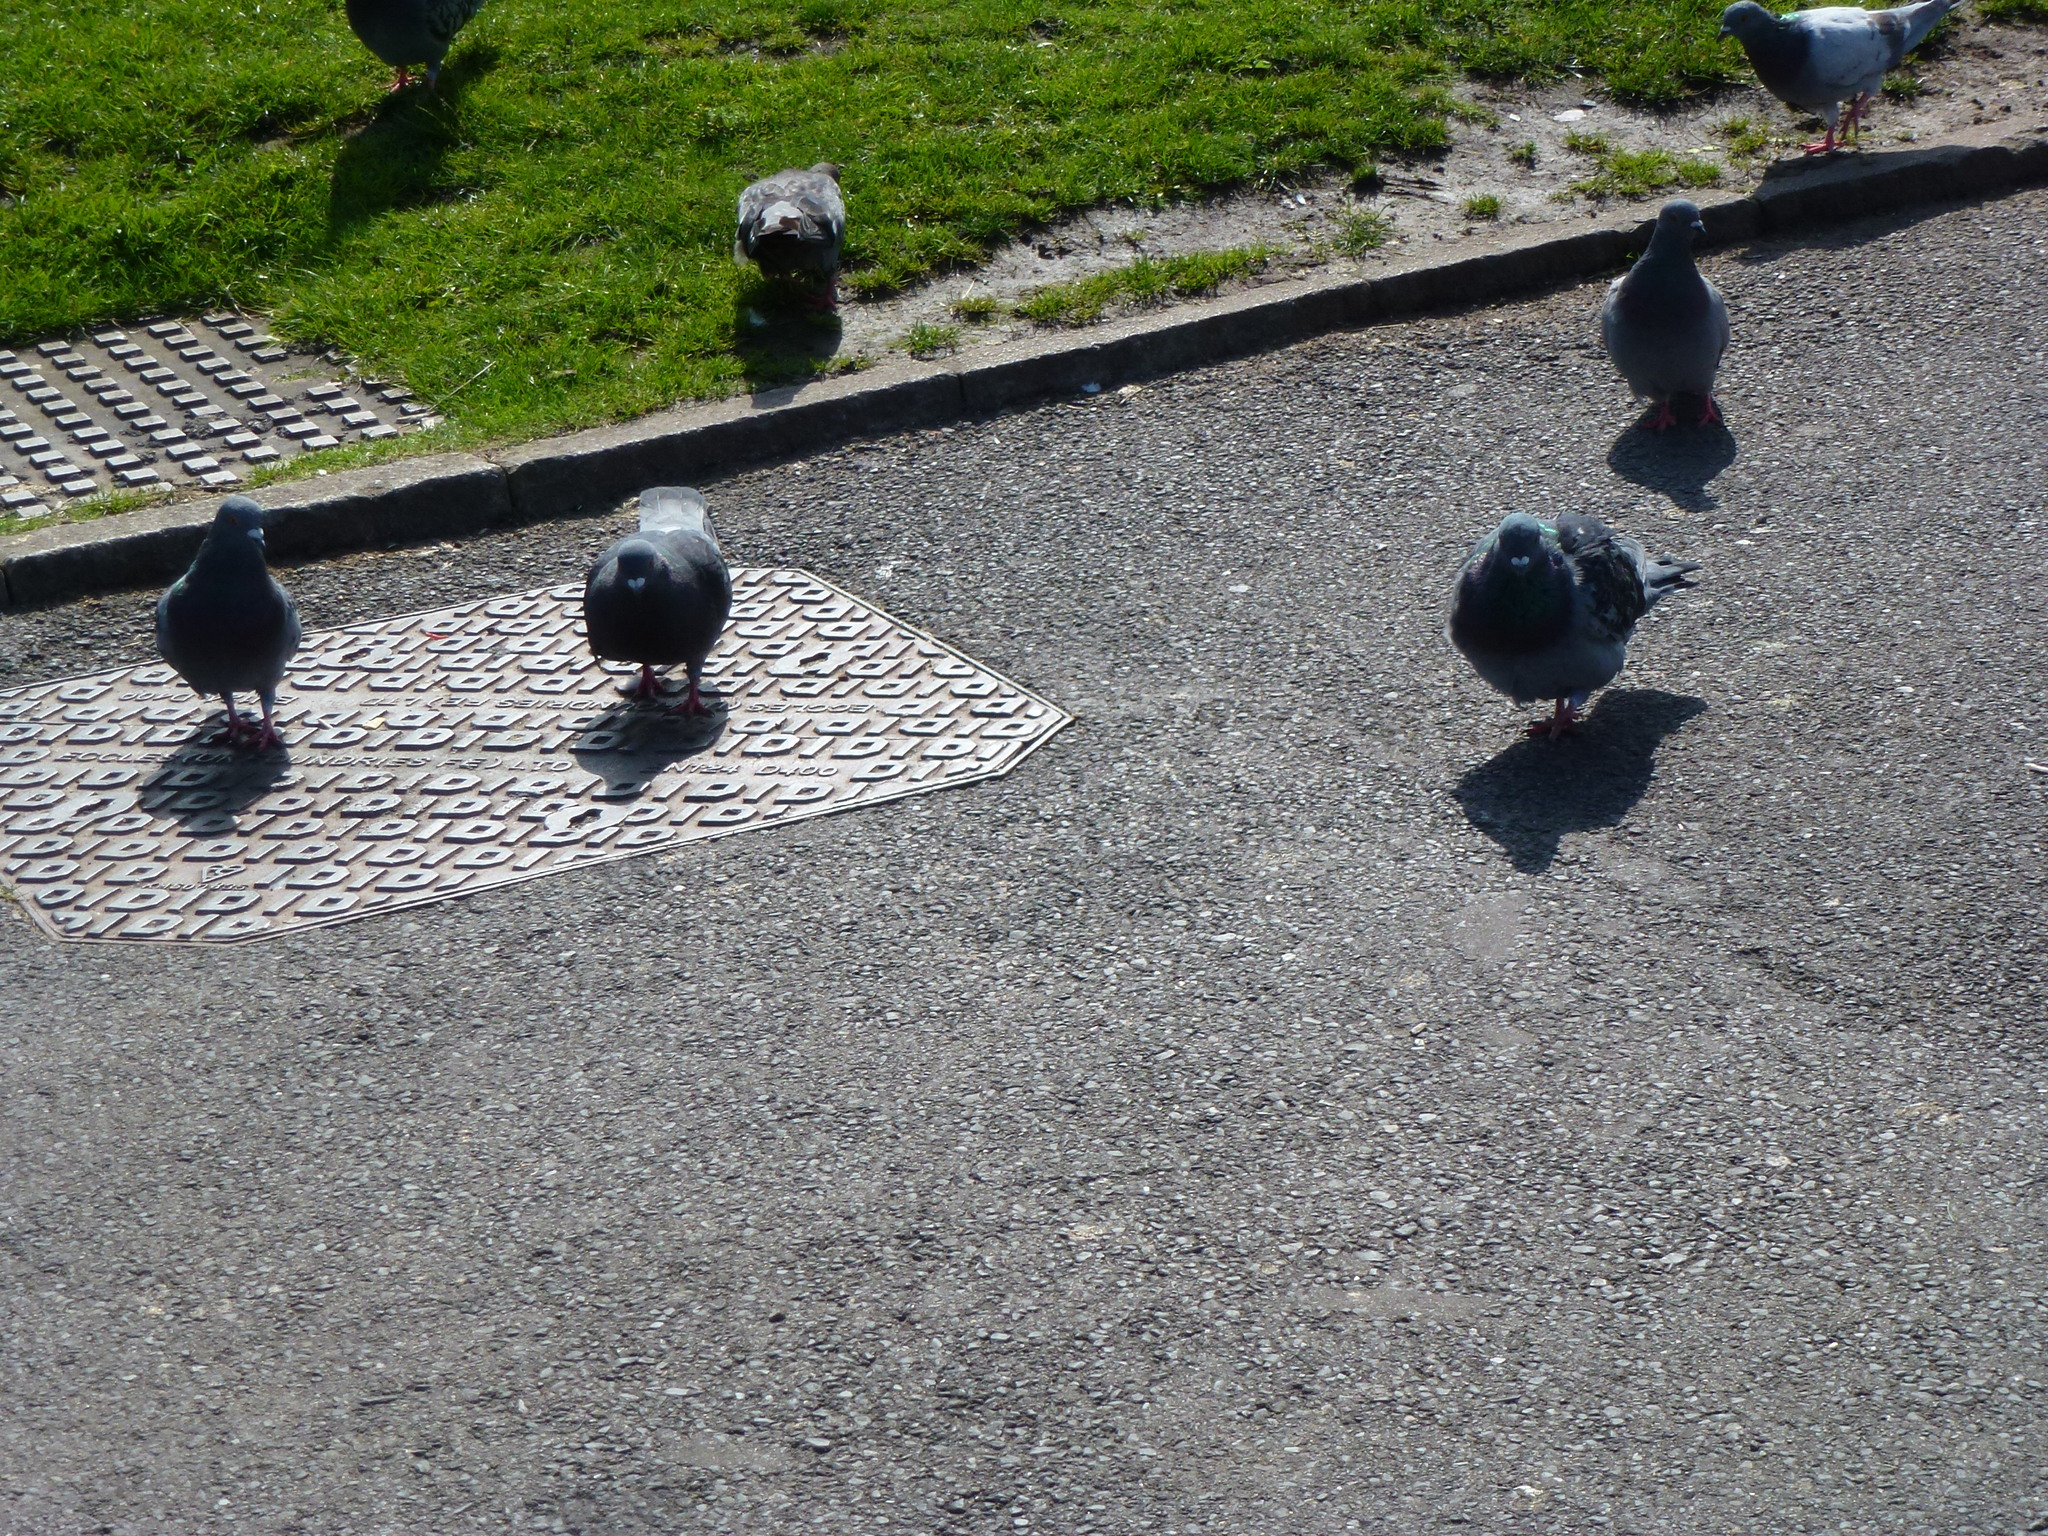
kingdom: Animalia
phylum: Chordata
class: Aves
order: Columbiformes
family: Columbidae
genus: Columba
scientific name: Columba livia
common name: Rock pigeon
